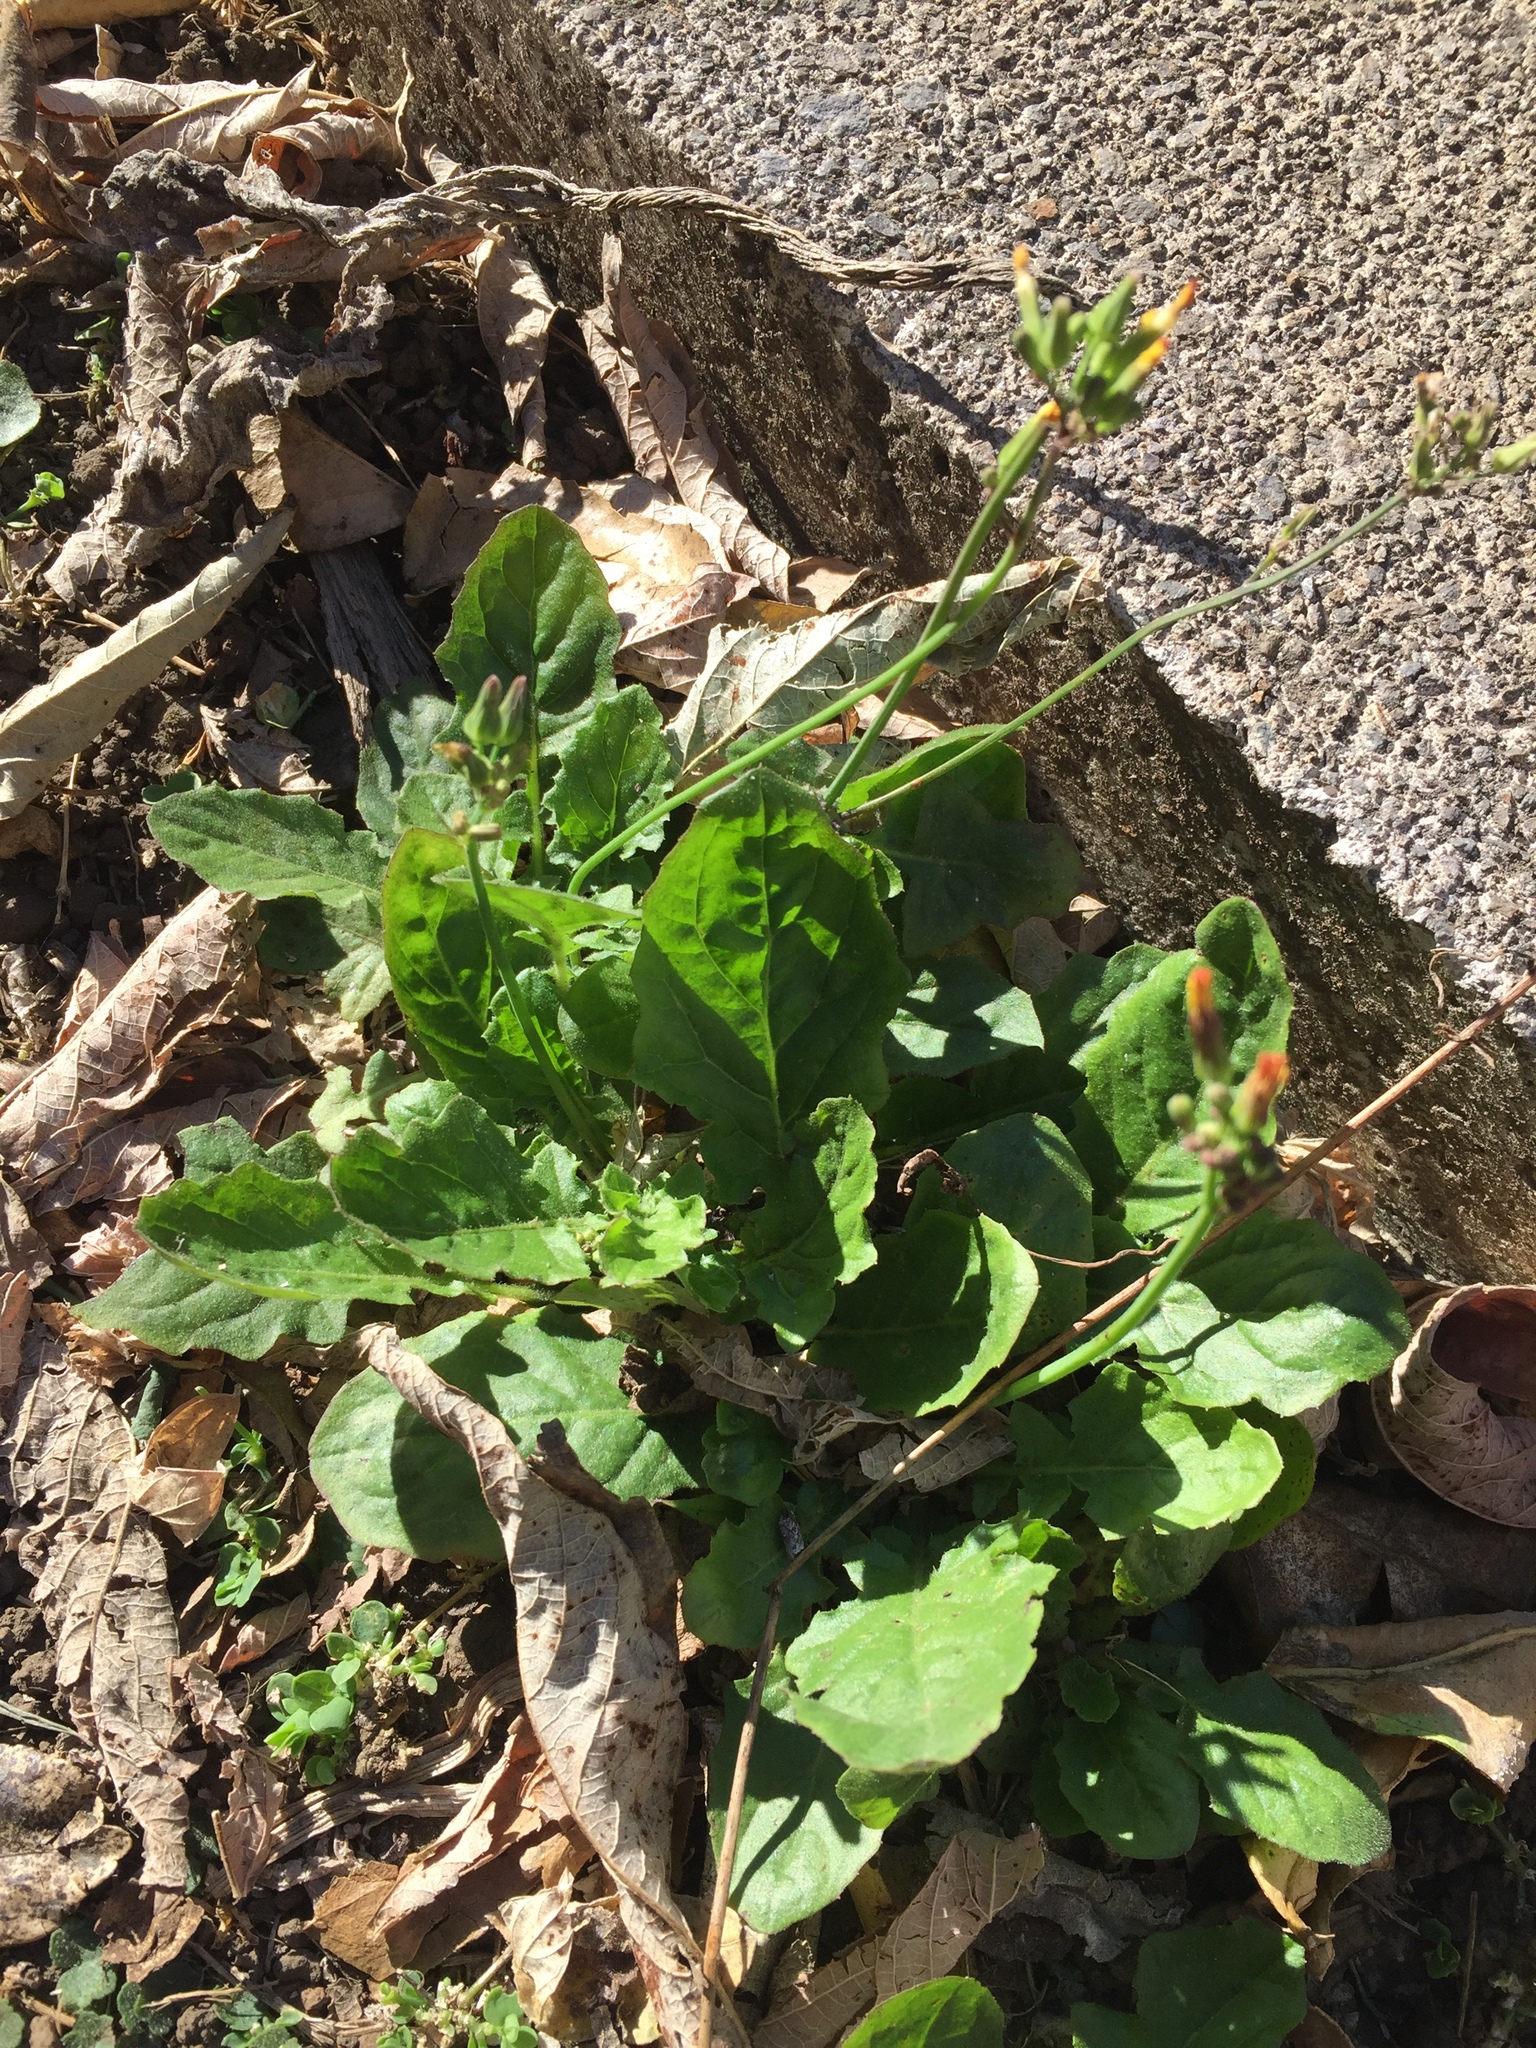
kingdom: Plantae
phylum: Tracheophyta
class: Magnoliopsida
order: Asterales
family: Asteraceae
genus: Youngia
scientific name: Youngia japonica
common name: Oriental false hawksbeard
